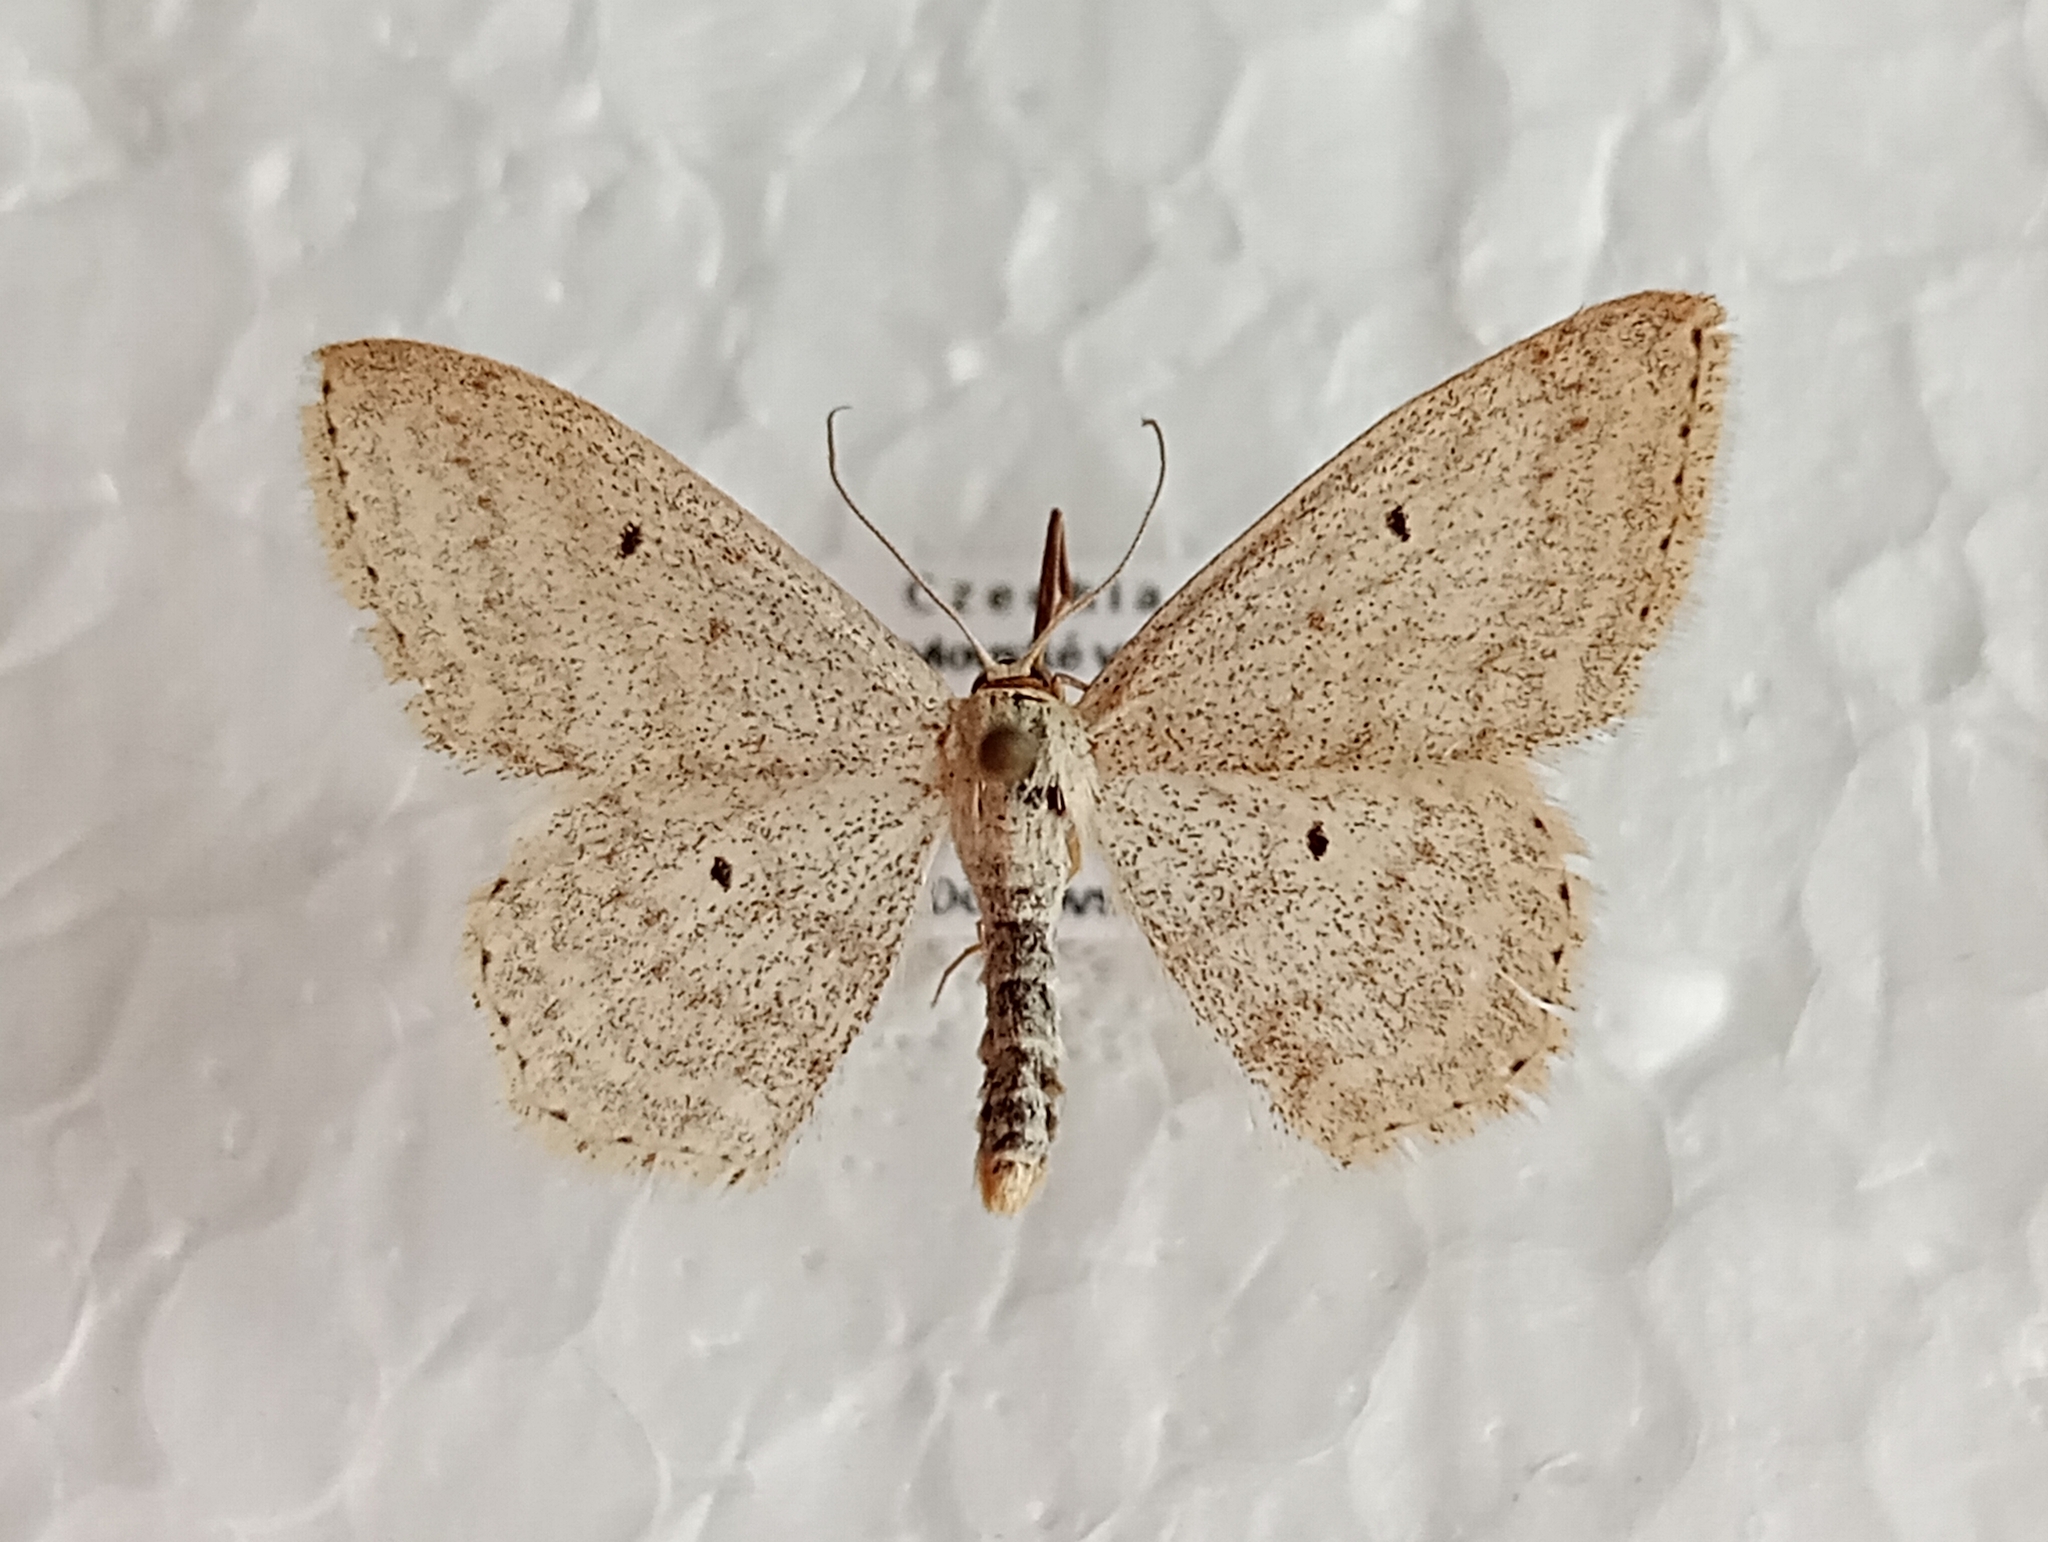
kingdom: Animalia
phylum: Arthropoda
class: Insecta
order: Lepidoptera
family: Geometridae
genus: Scopula
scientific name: Scopula incanata
